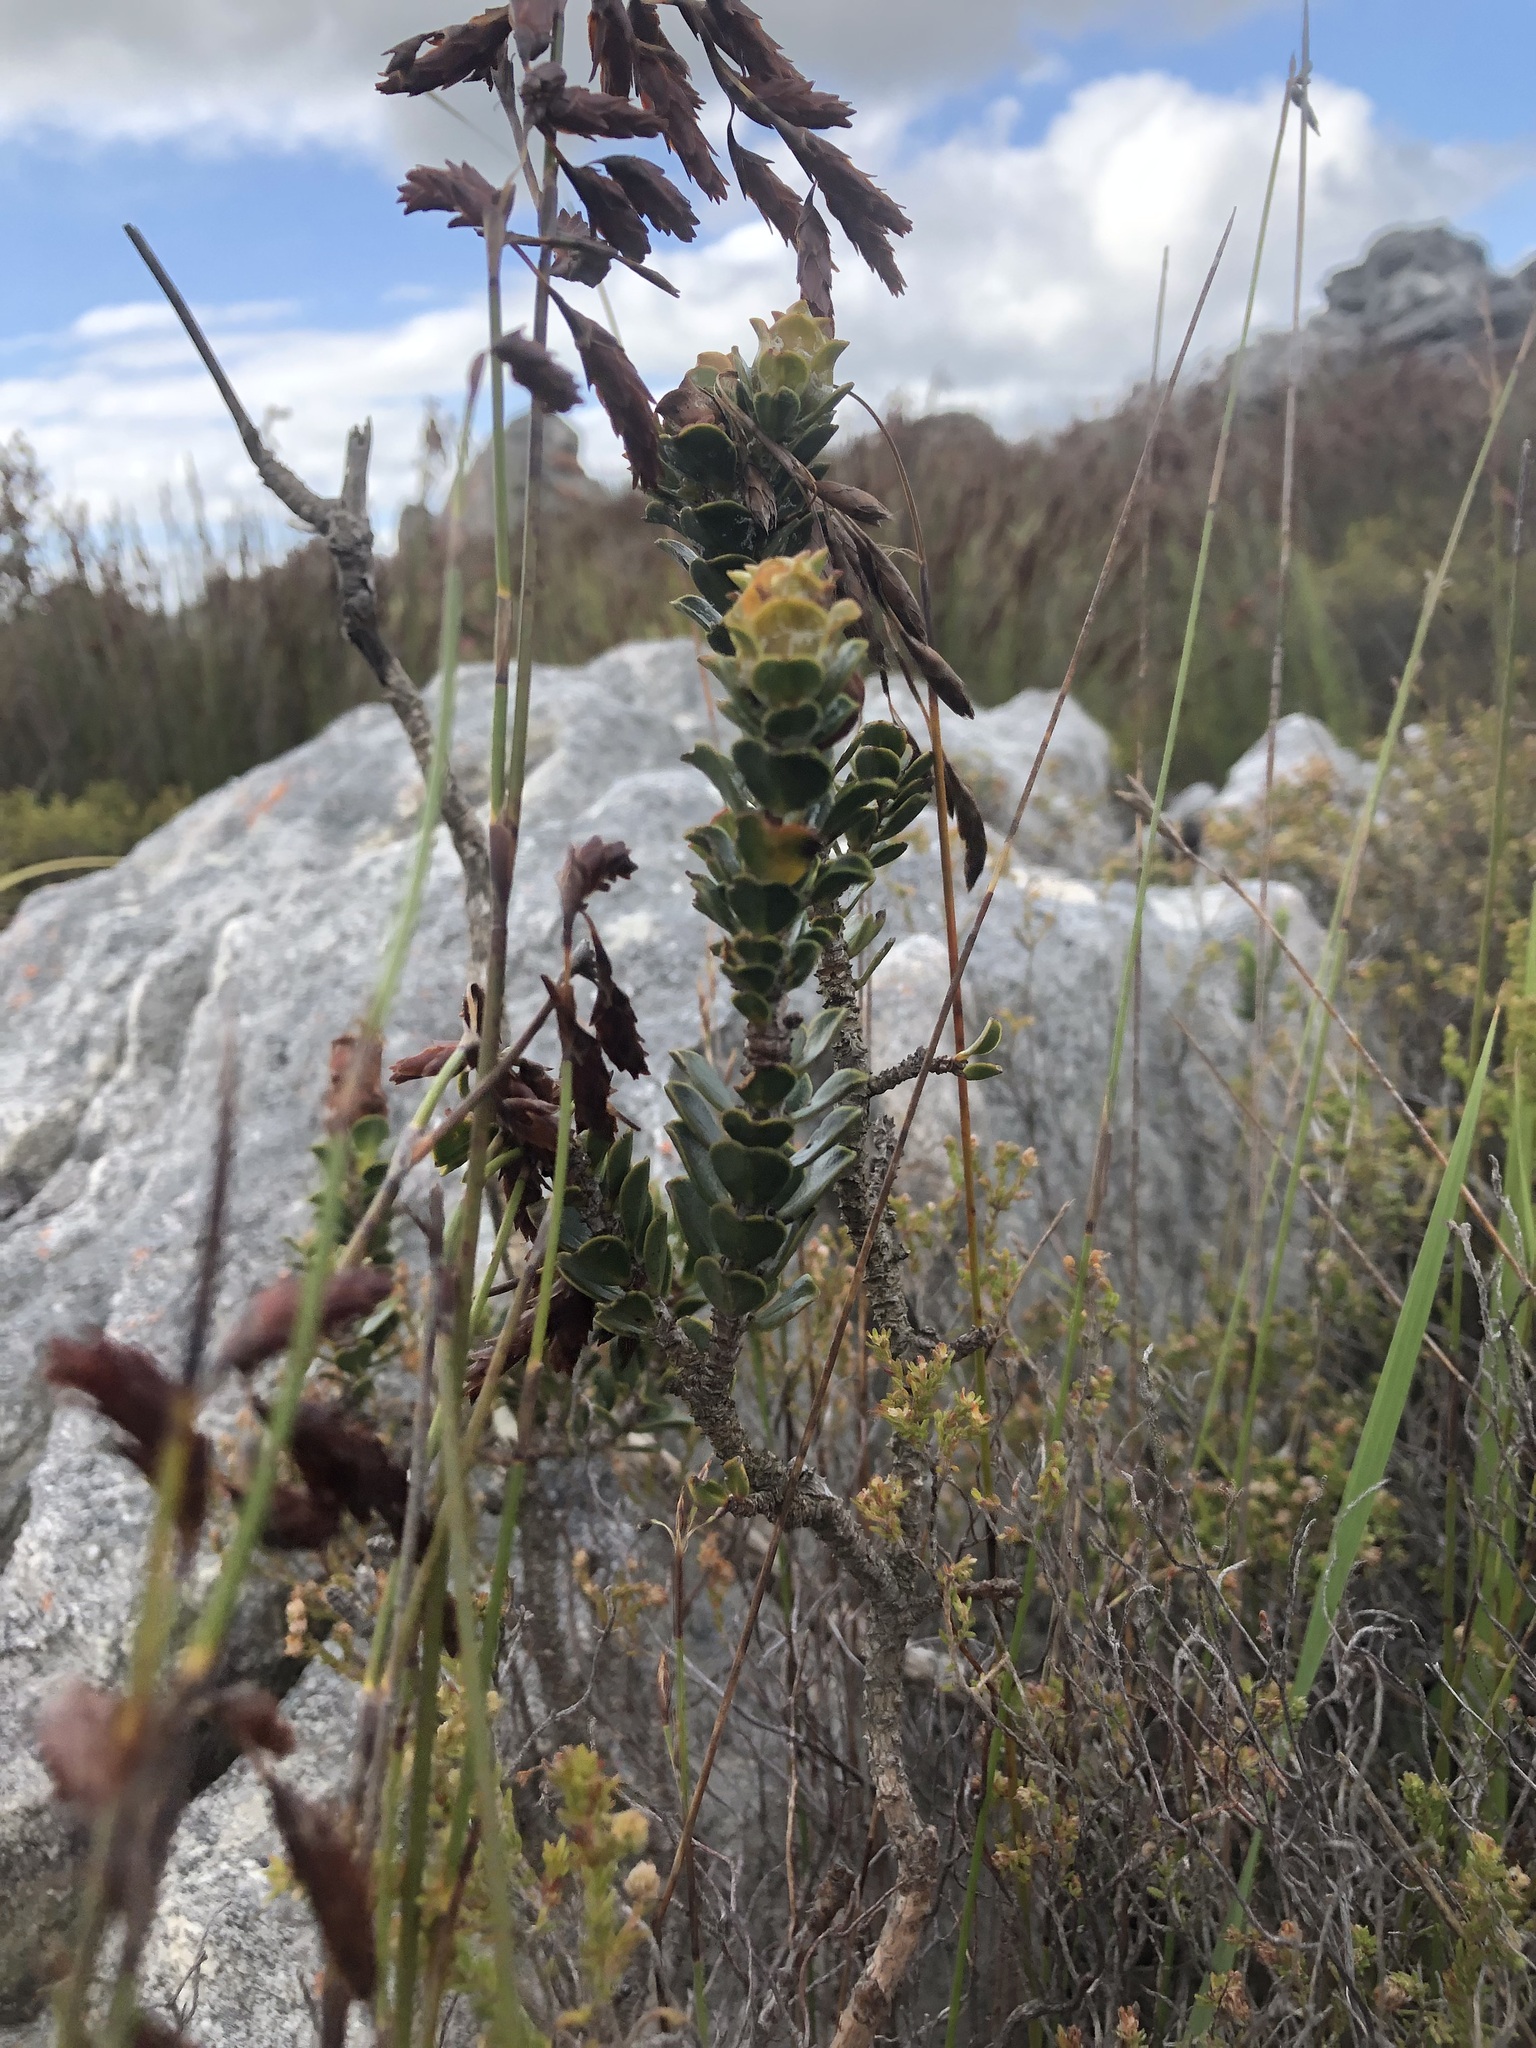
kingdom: Plantae
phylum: Tracheophyta
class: Magnoliopsida
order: Myrtales
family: Penaeaceae
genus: Saltera
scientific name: Saltera sarcocolla
